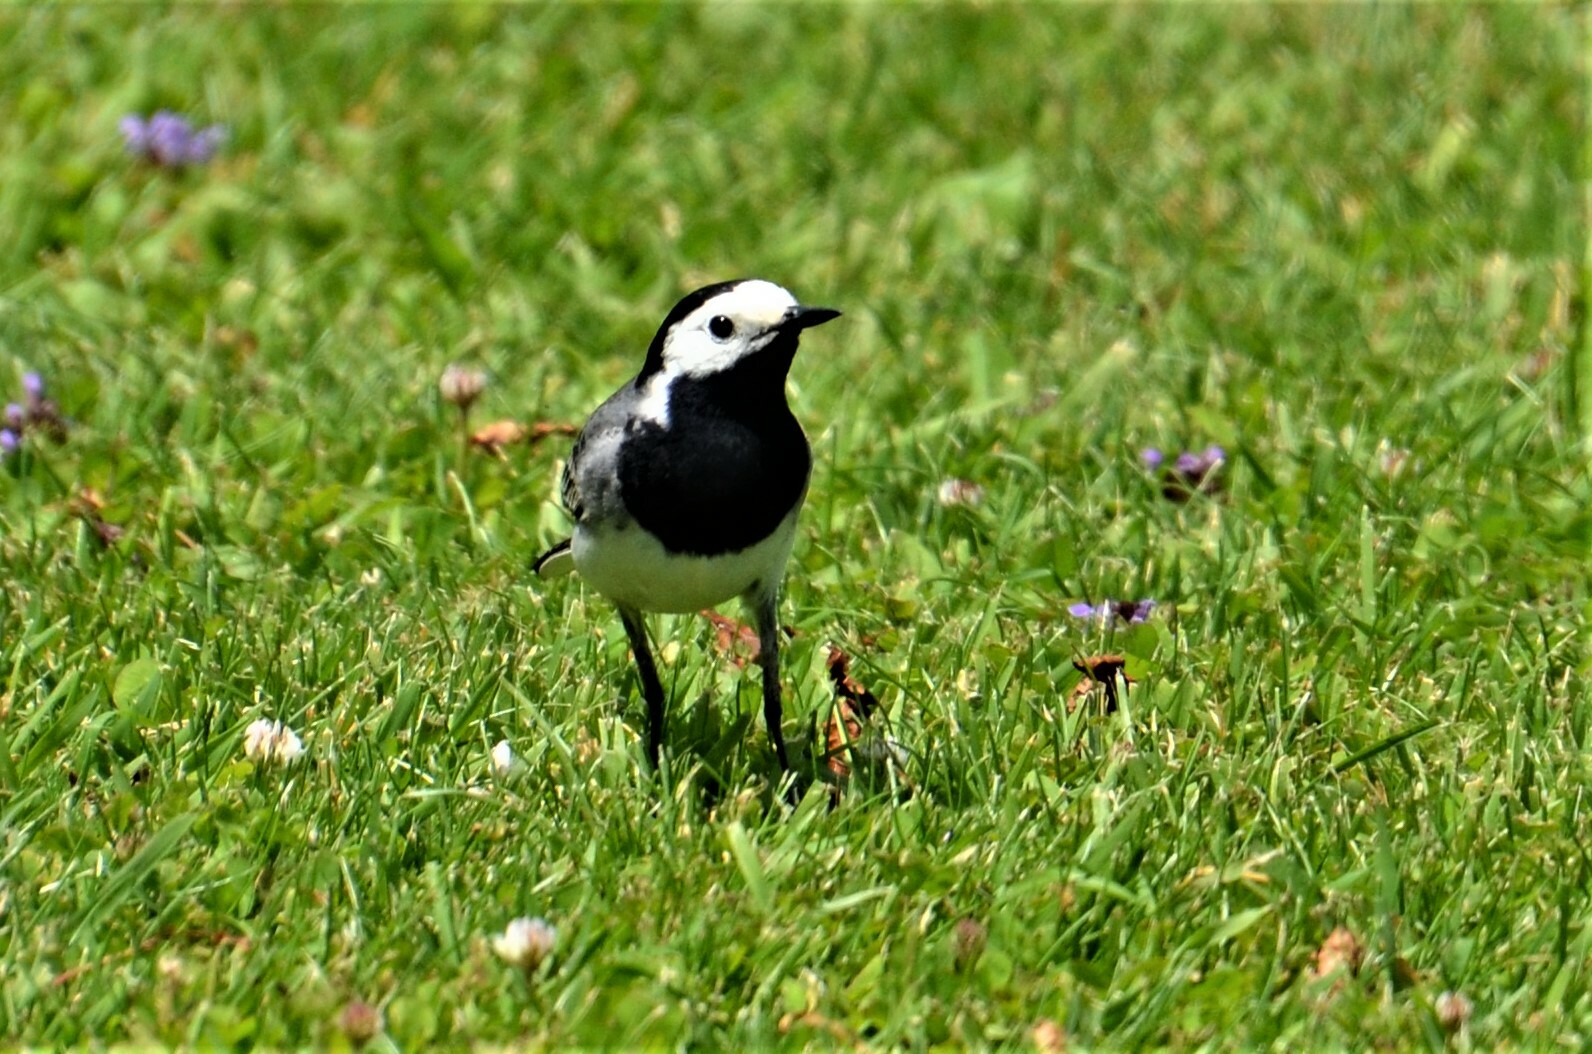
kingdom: Animalia
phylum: Chordata
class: Aves
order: Passeriformes
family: Motacillidae
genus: Motacilla
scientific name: Motacilla alba
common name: White wagtail
